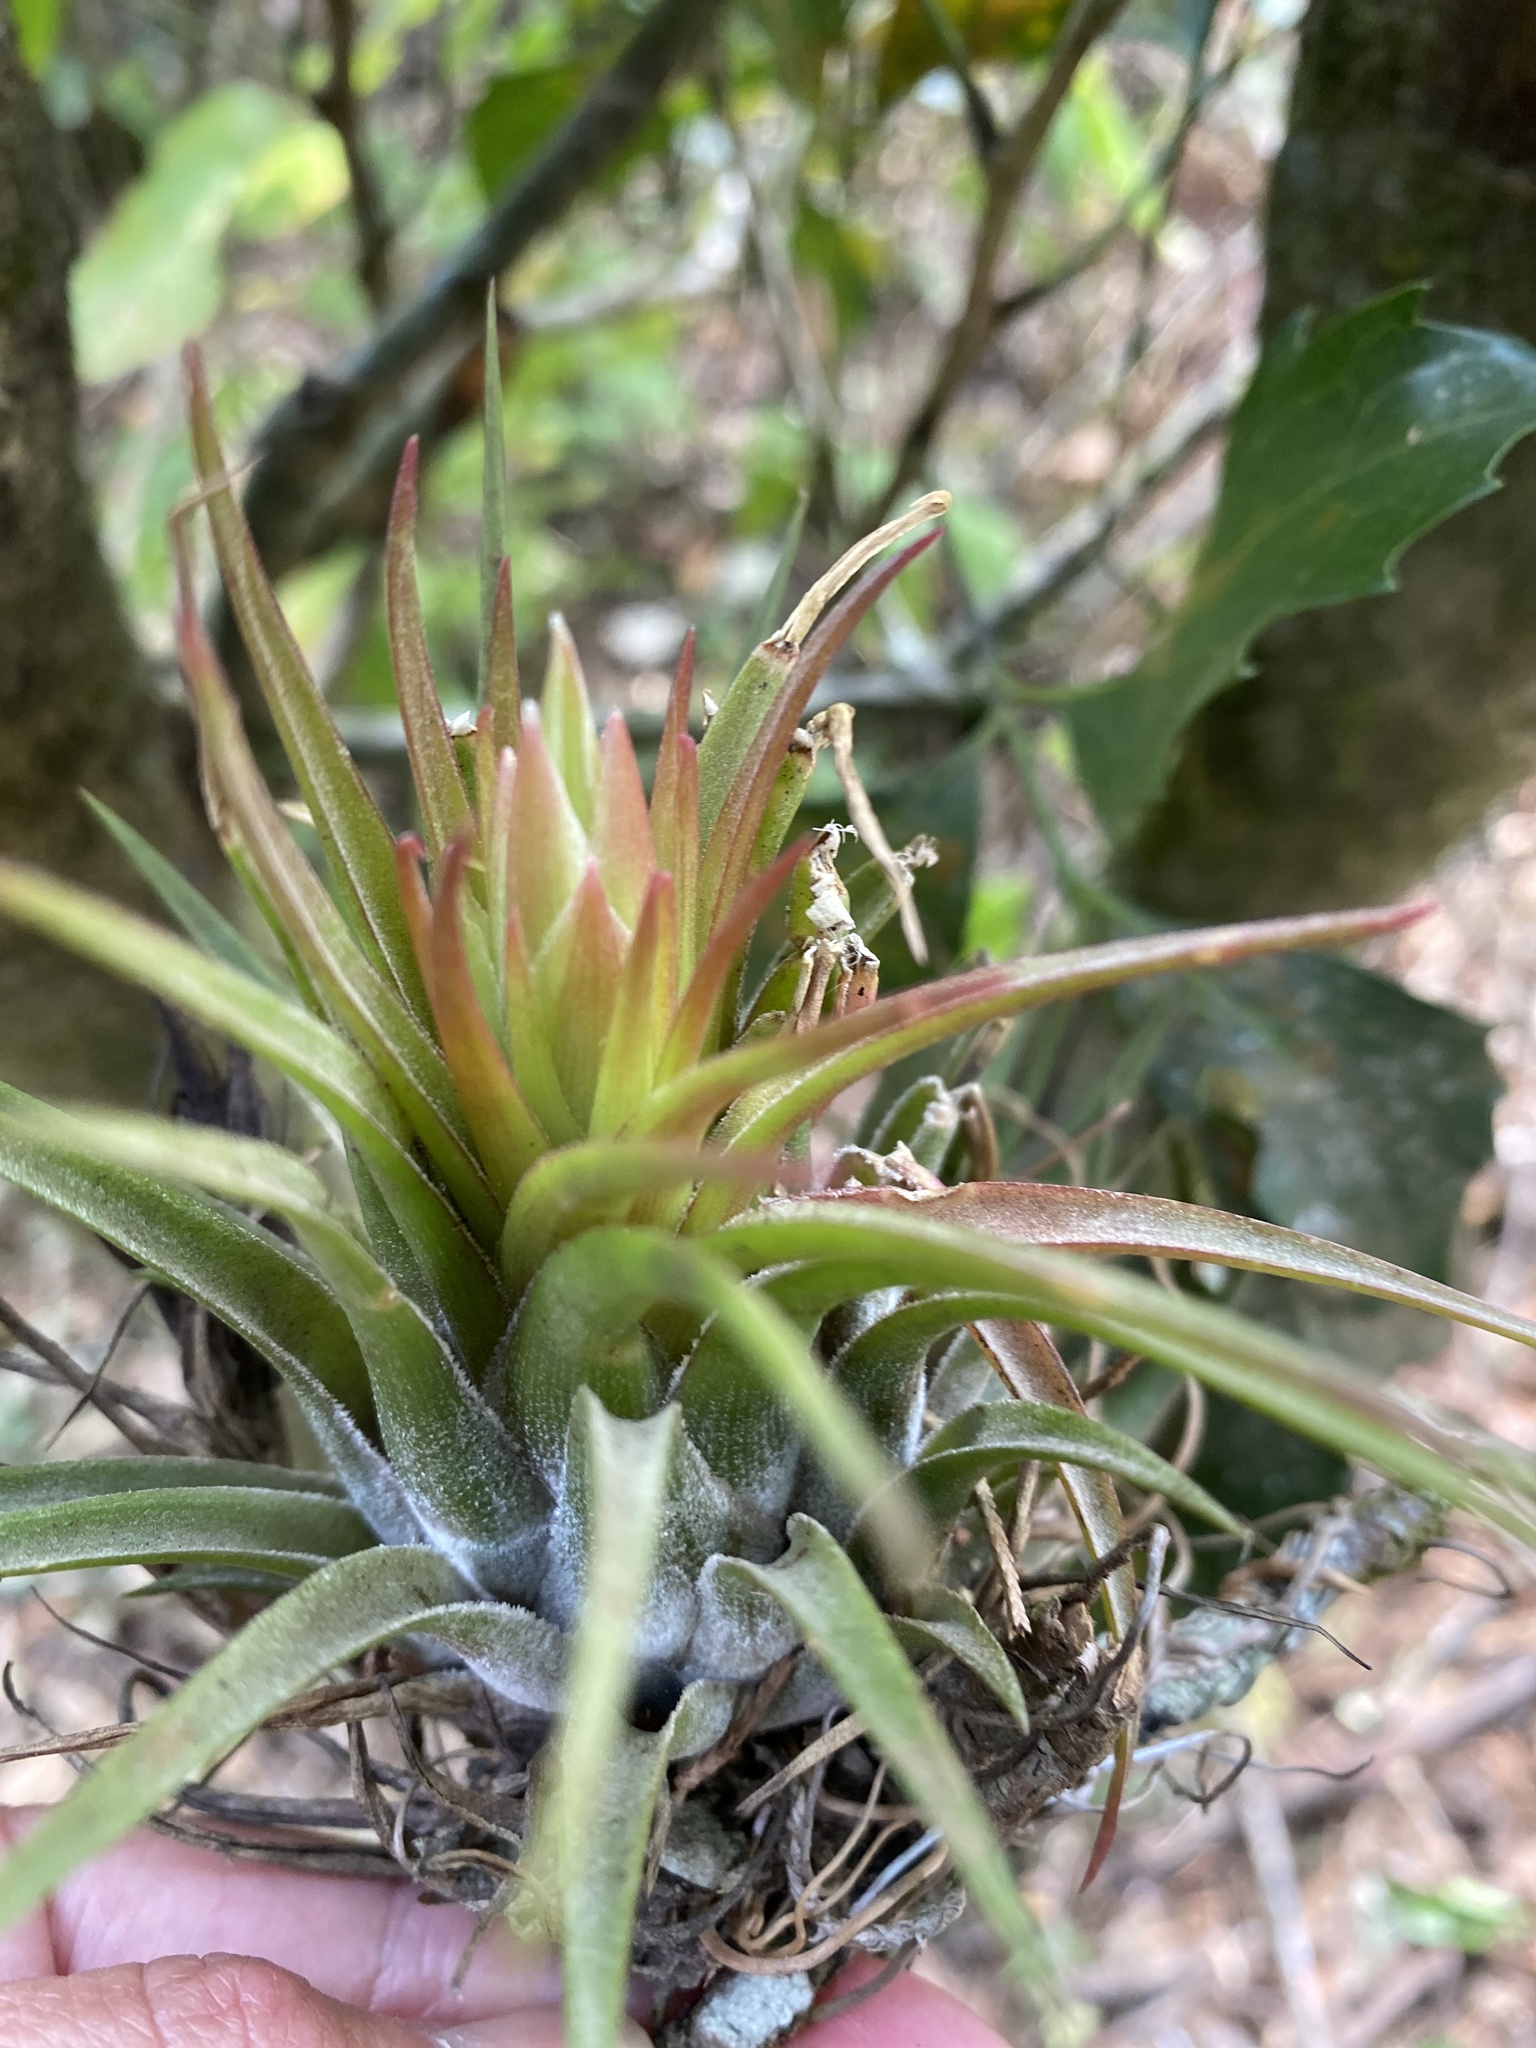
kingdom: Plantae
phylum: Tracheophyta
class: Liliopsida
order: Poales
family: Bromeliaceae
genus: Tillandsia
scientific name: Tillandsia kolbii
